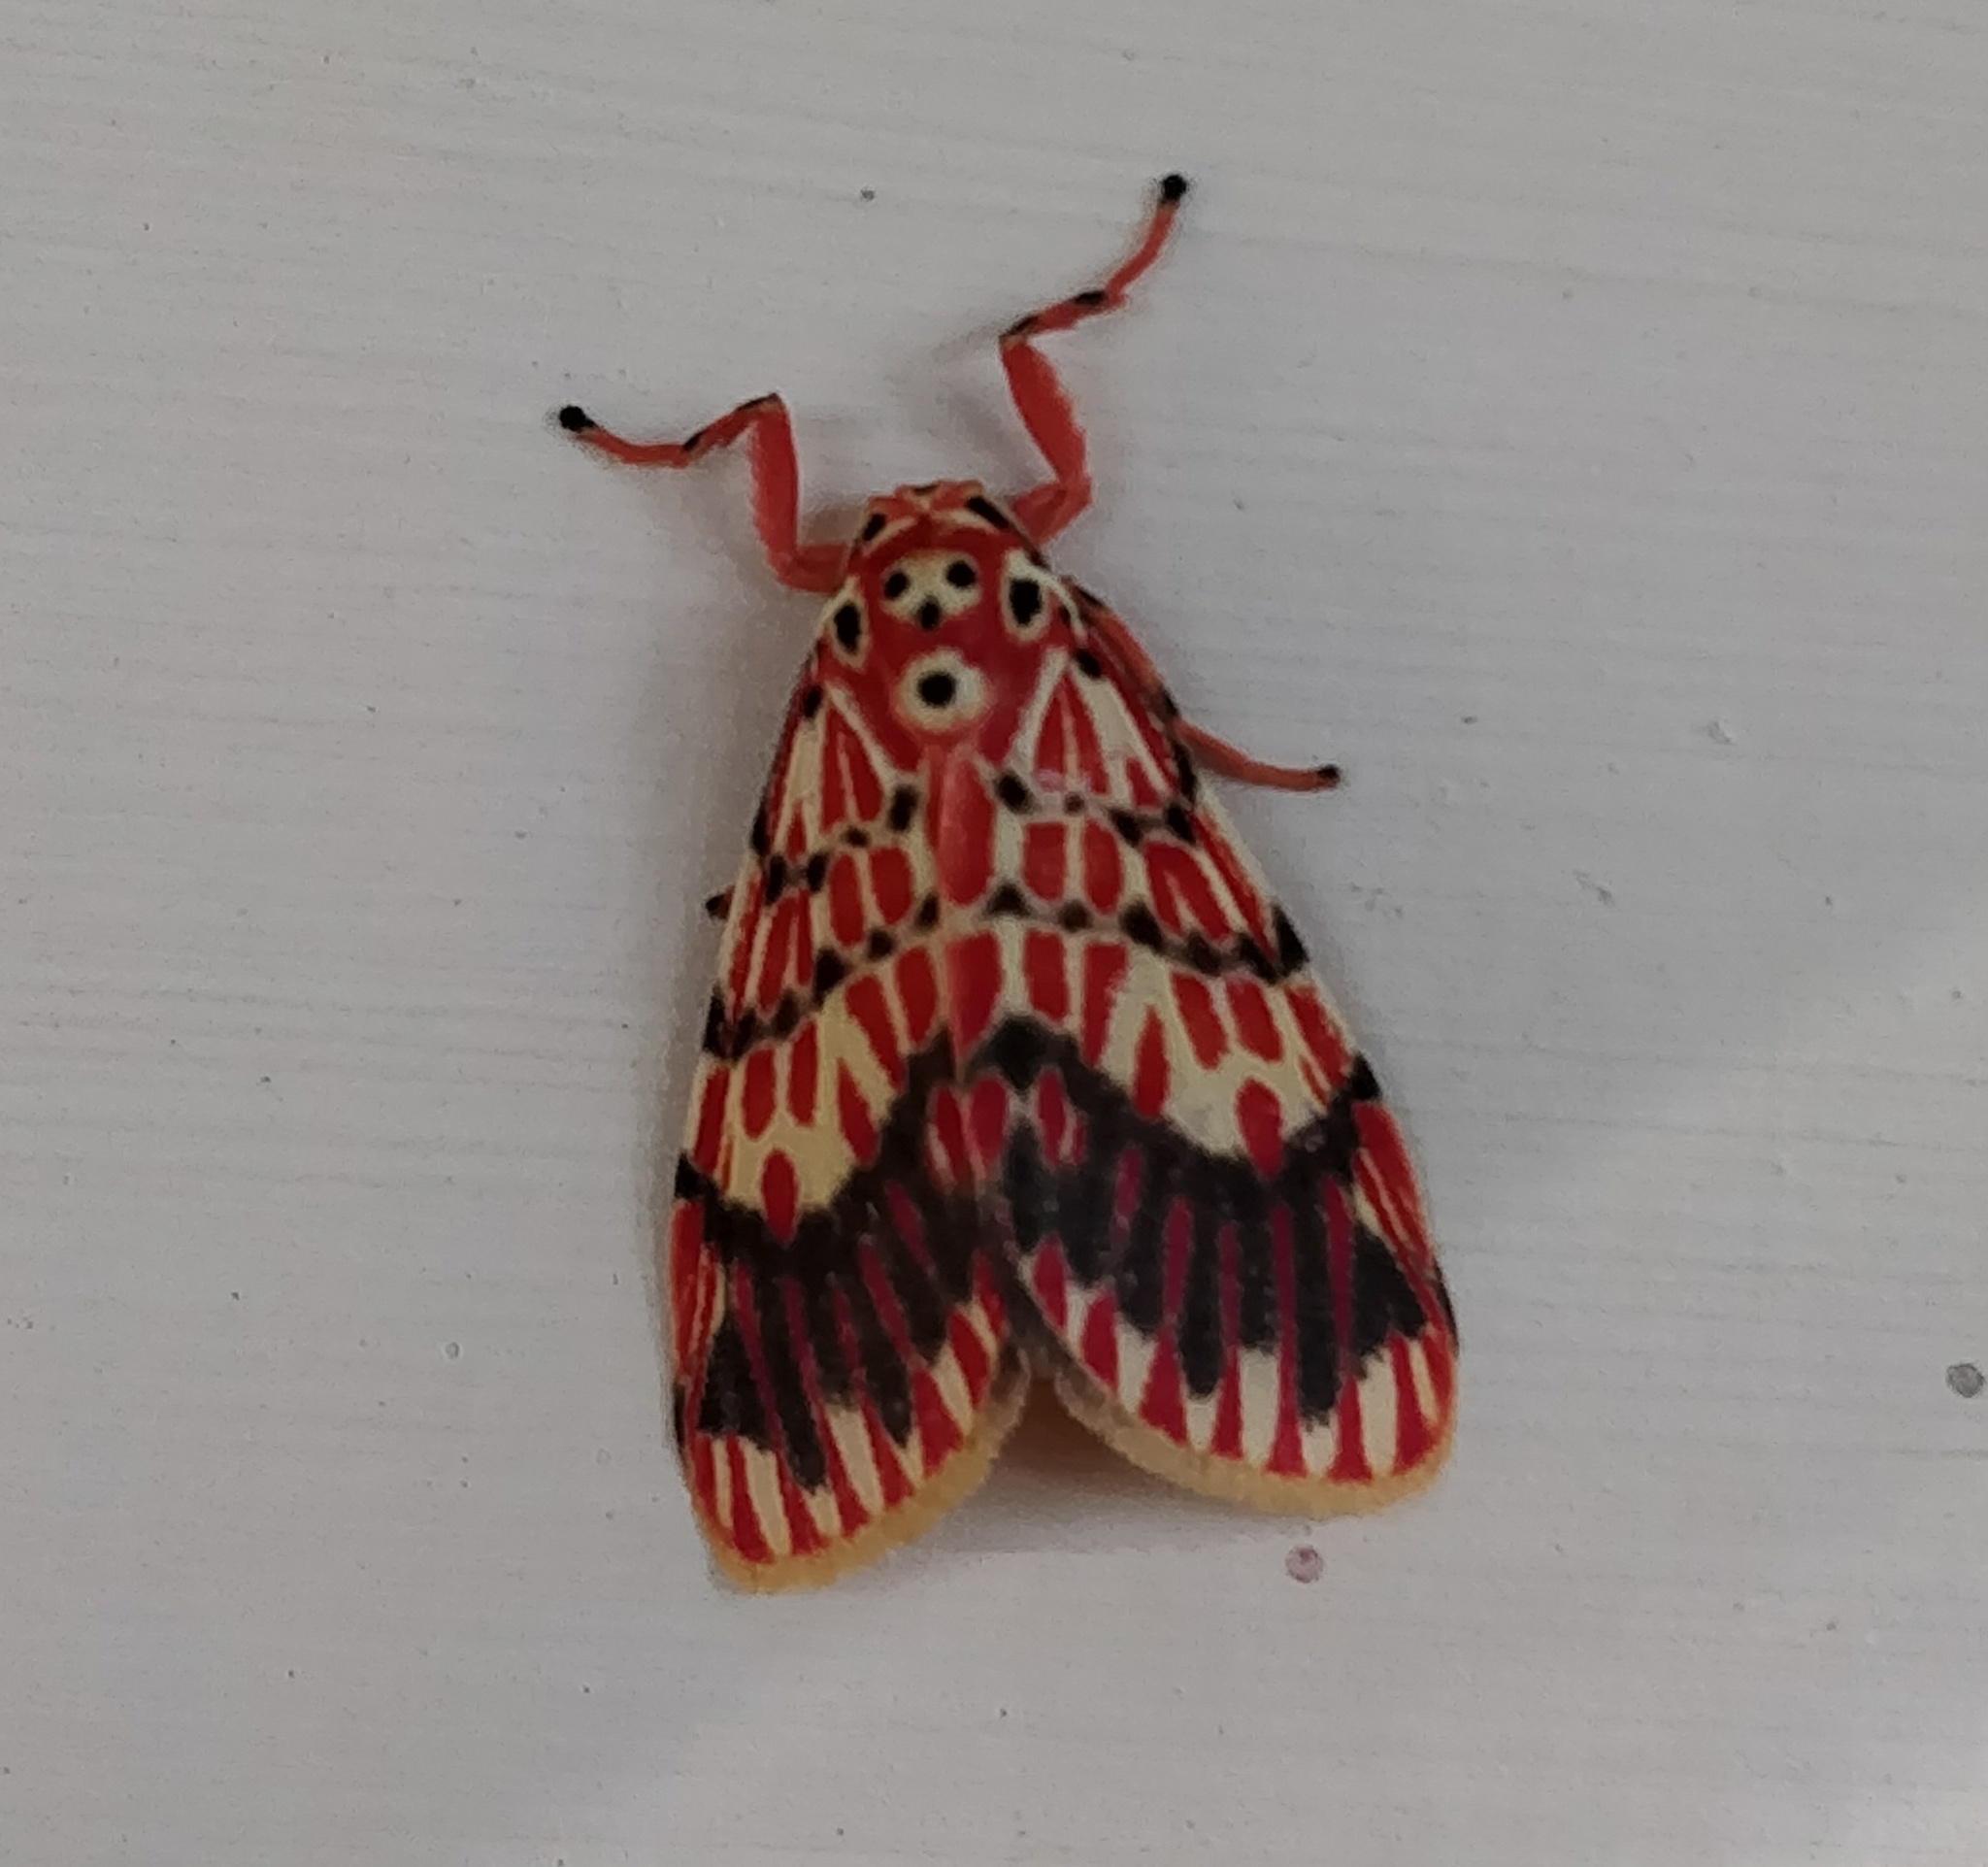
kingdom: Animalia
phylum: Arthropoda
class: Insecta
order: Lepidoptera
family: Erebidae
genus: Barsine
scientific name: Barsine gratiosa
